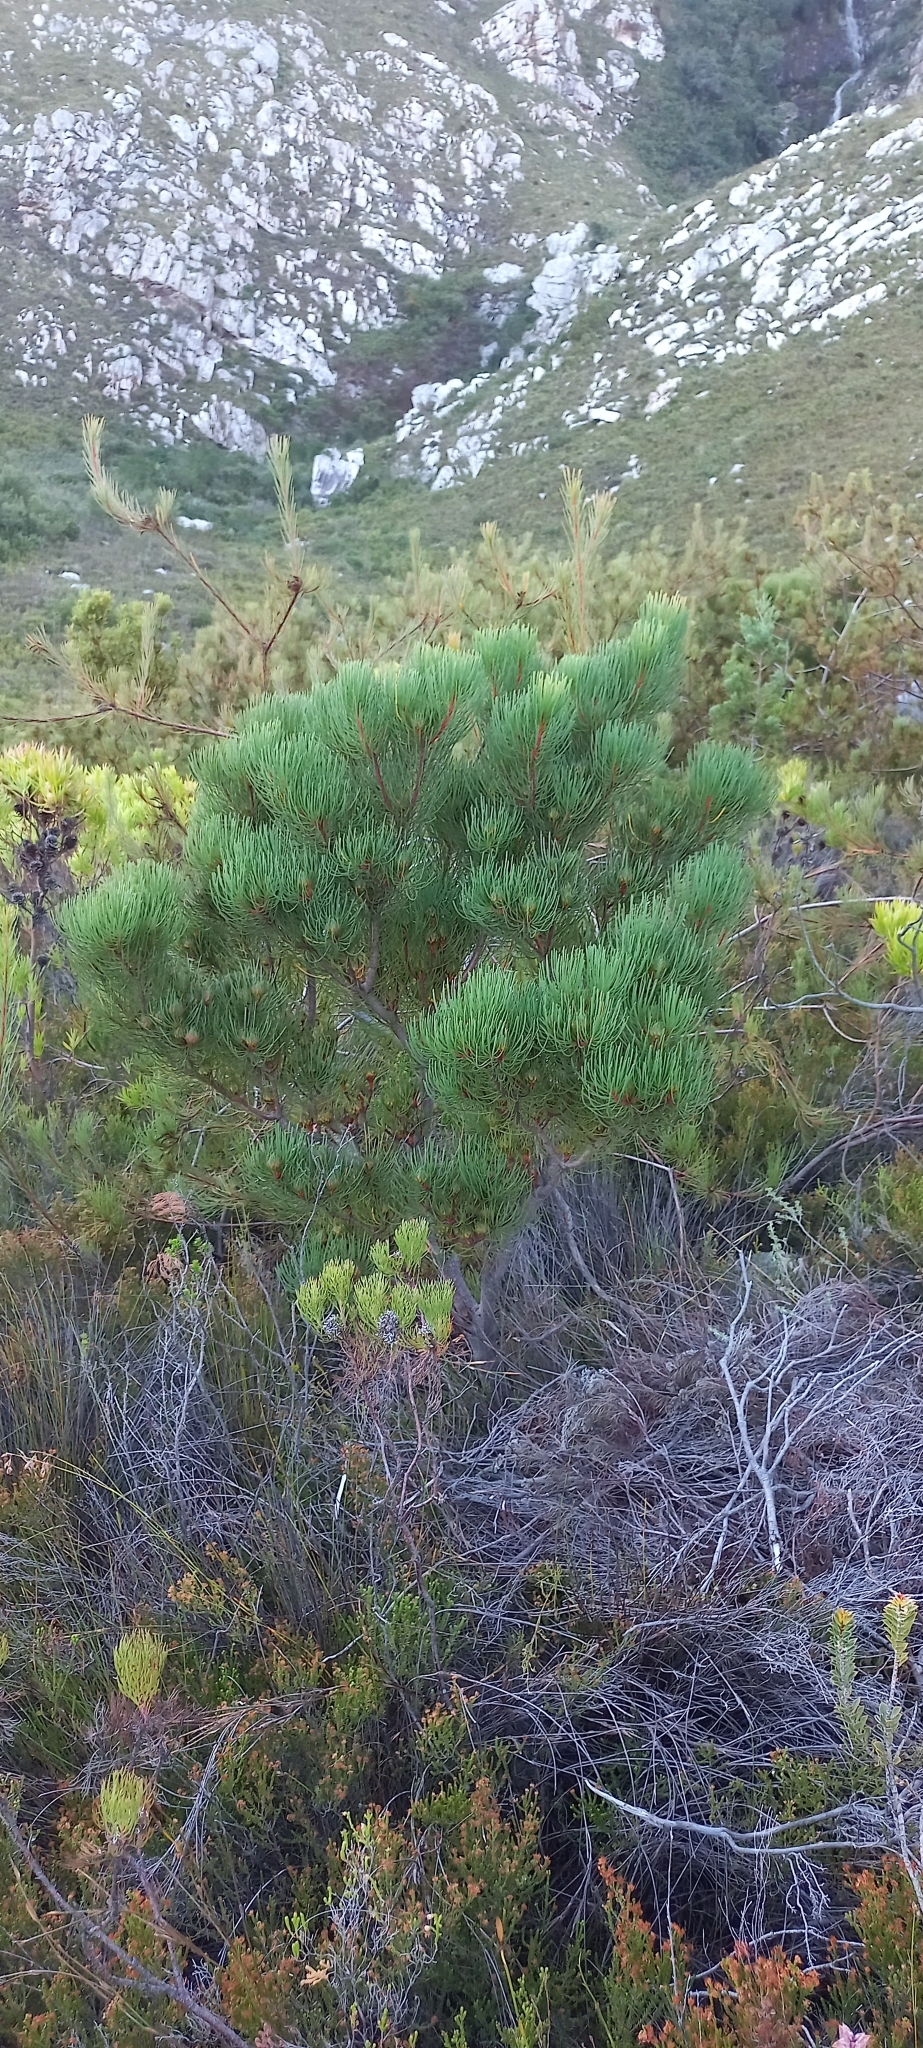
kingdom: Plantae
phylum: Tracheophyta
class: Magnoliopsida
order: Proteales
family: Proteaceae
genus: Aulax
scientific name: Aulax cancellata
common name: Channel-leaf featherbush
